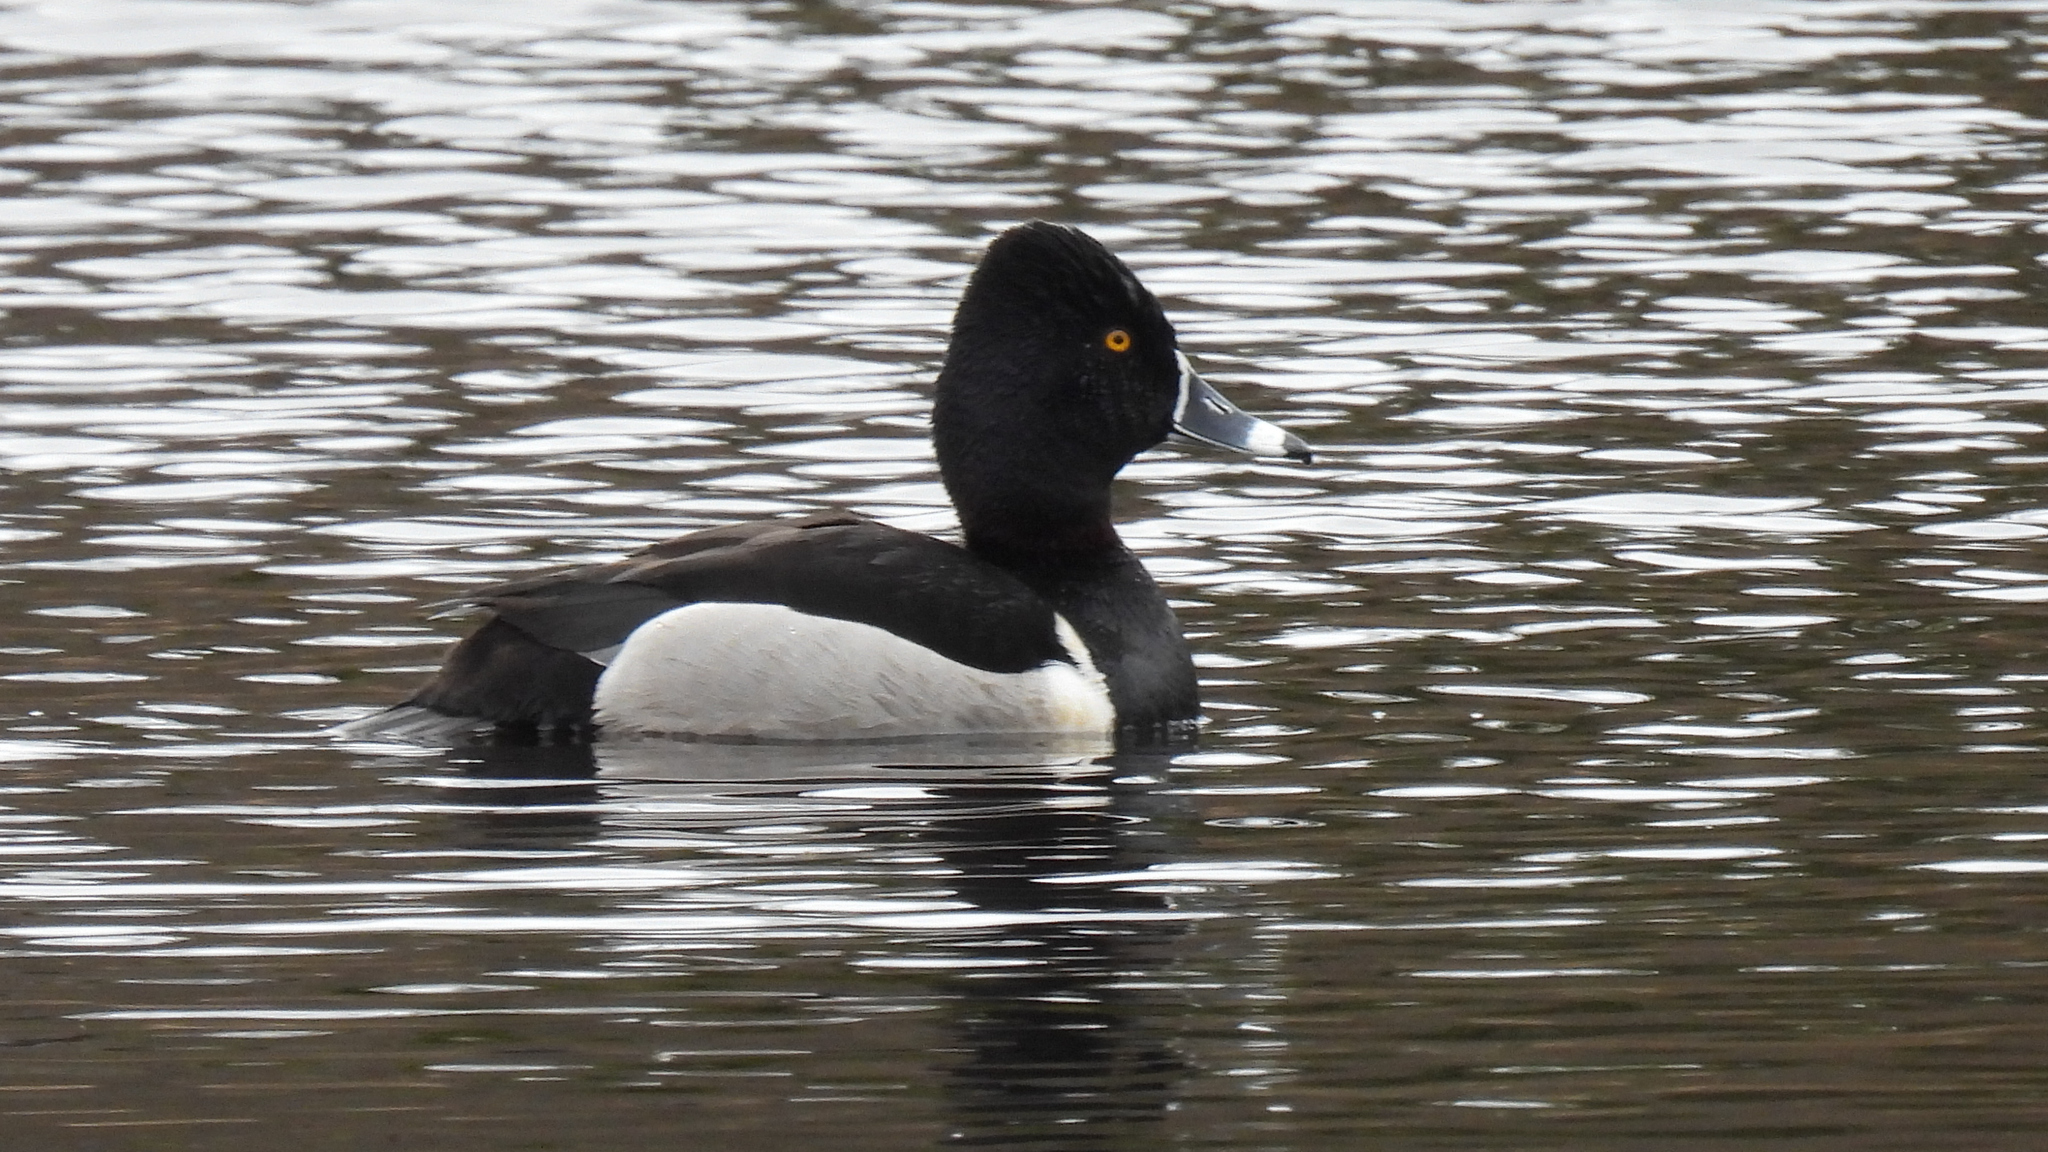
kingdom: Animalia
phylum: Chordata
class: Aves
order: Anseriformes
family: Anatidae
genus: Aythya
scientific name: Aythya collaris
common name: Ring-necked duck
